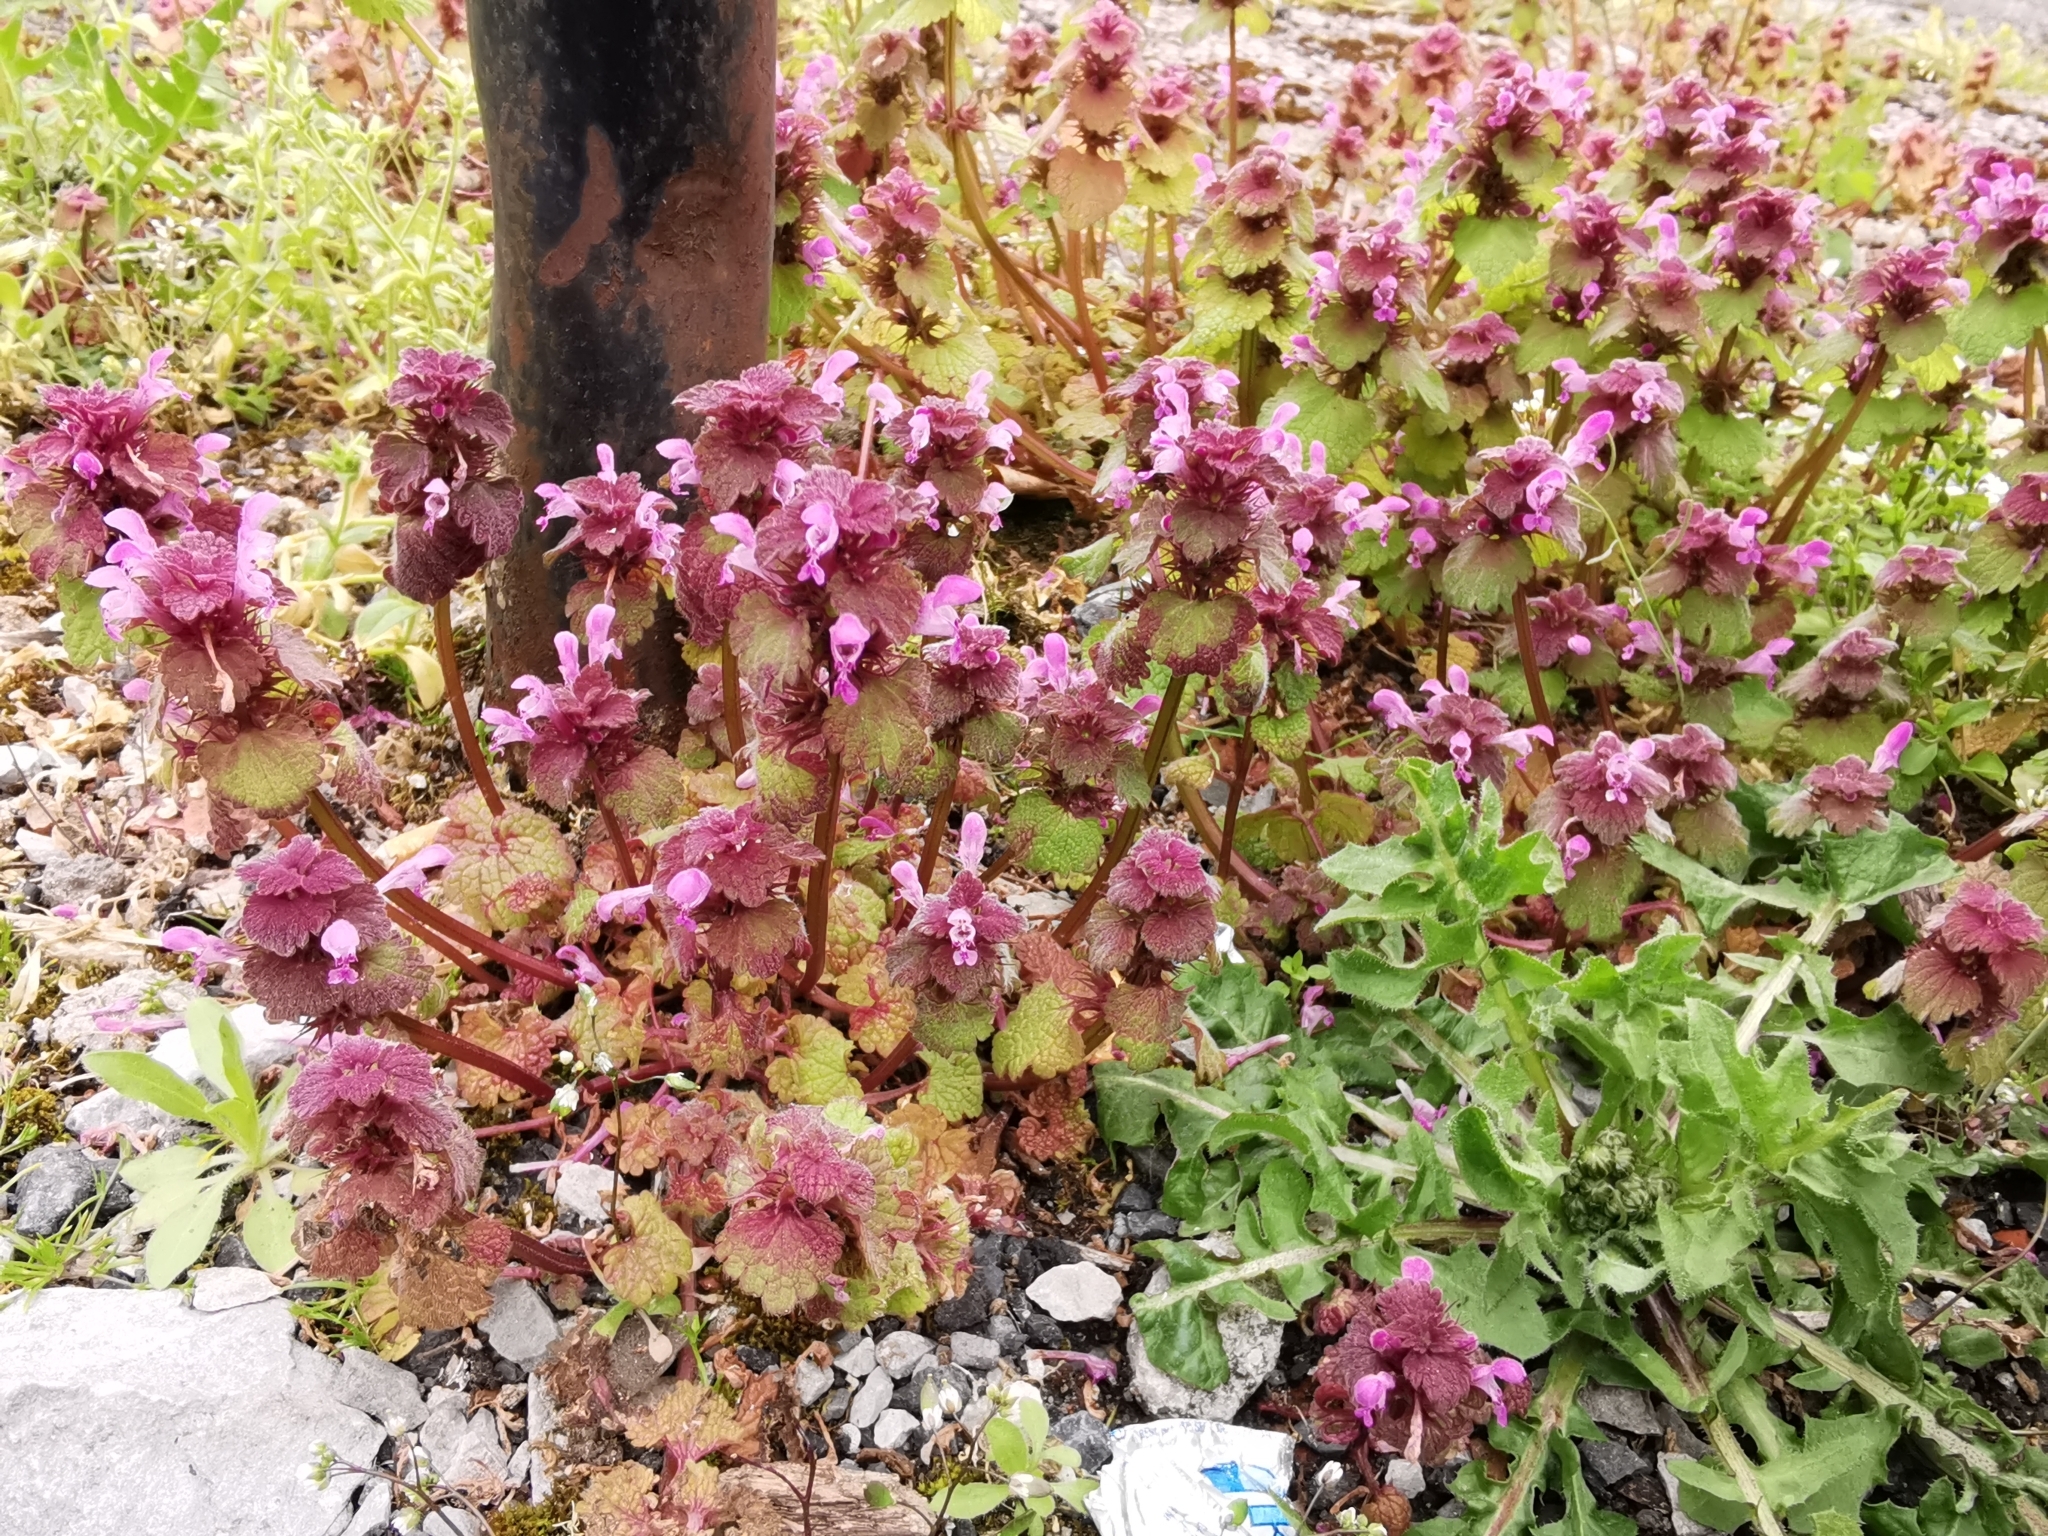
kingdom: Plantae
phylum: Tracheophyta
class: Magnoliopsida
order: Lamiales
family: Lamiaceae
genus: Lamium
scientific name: Lamium purpureum
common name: Red dead-nettle
